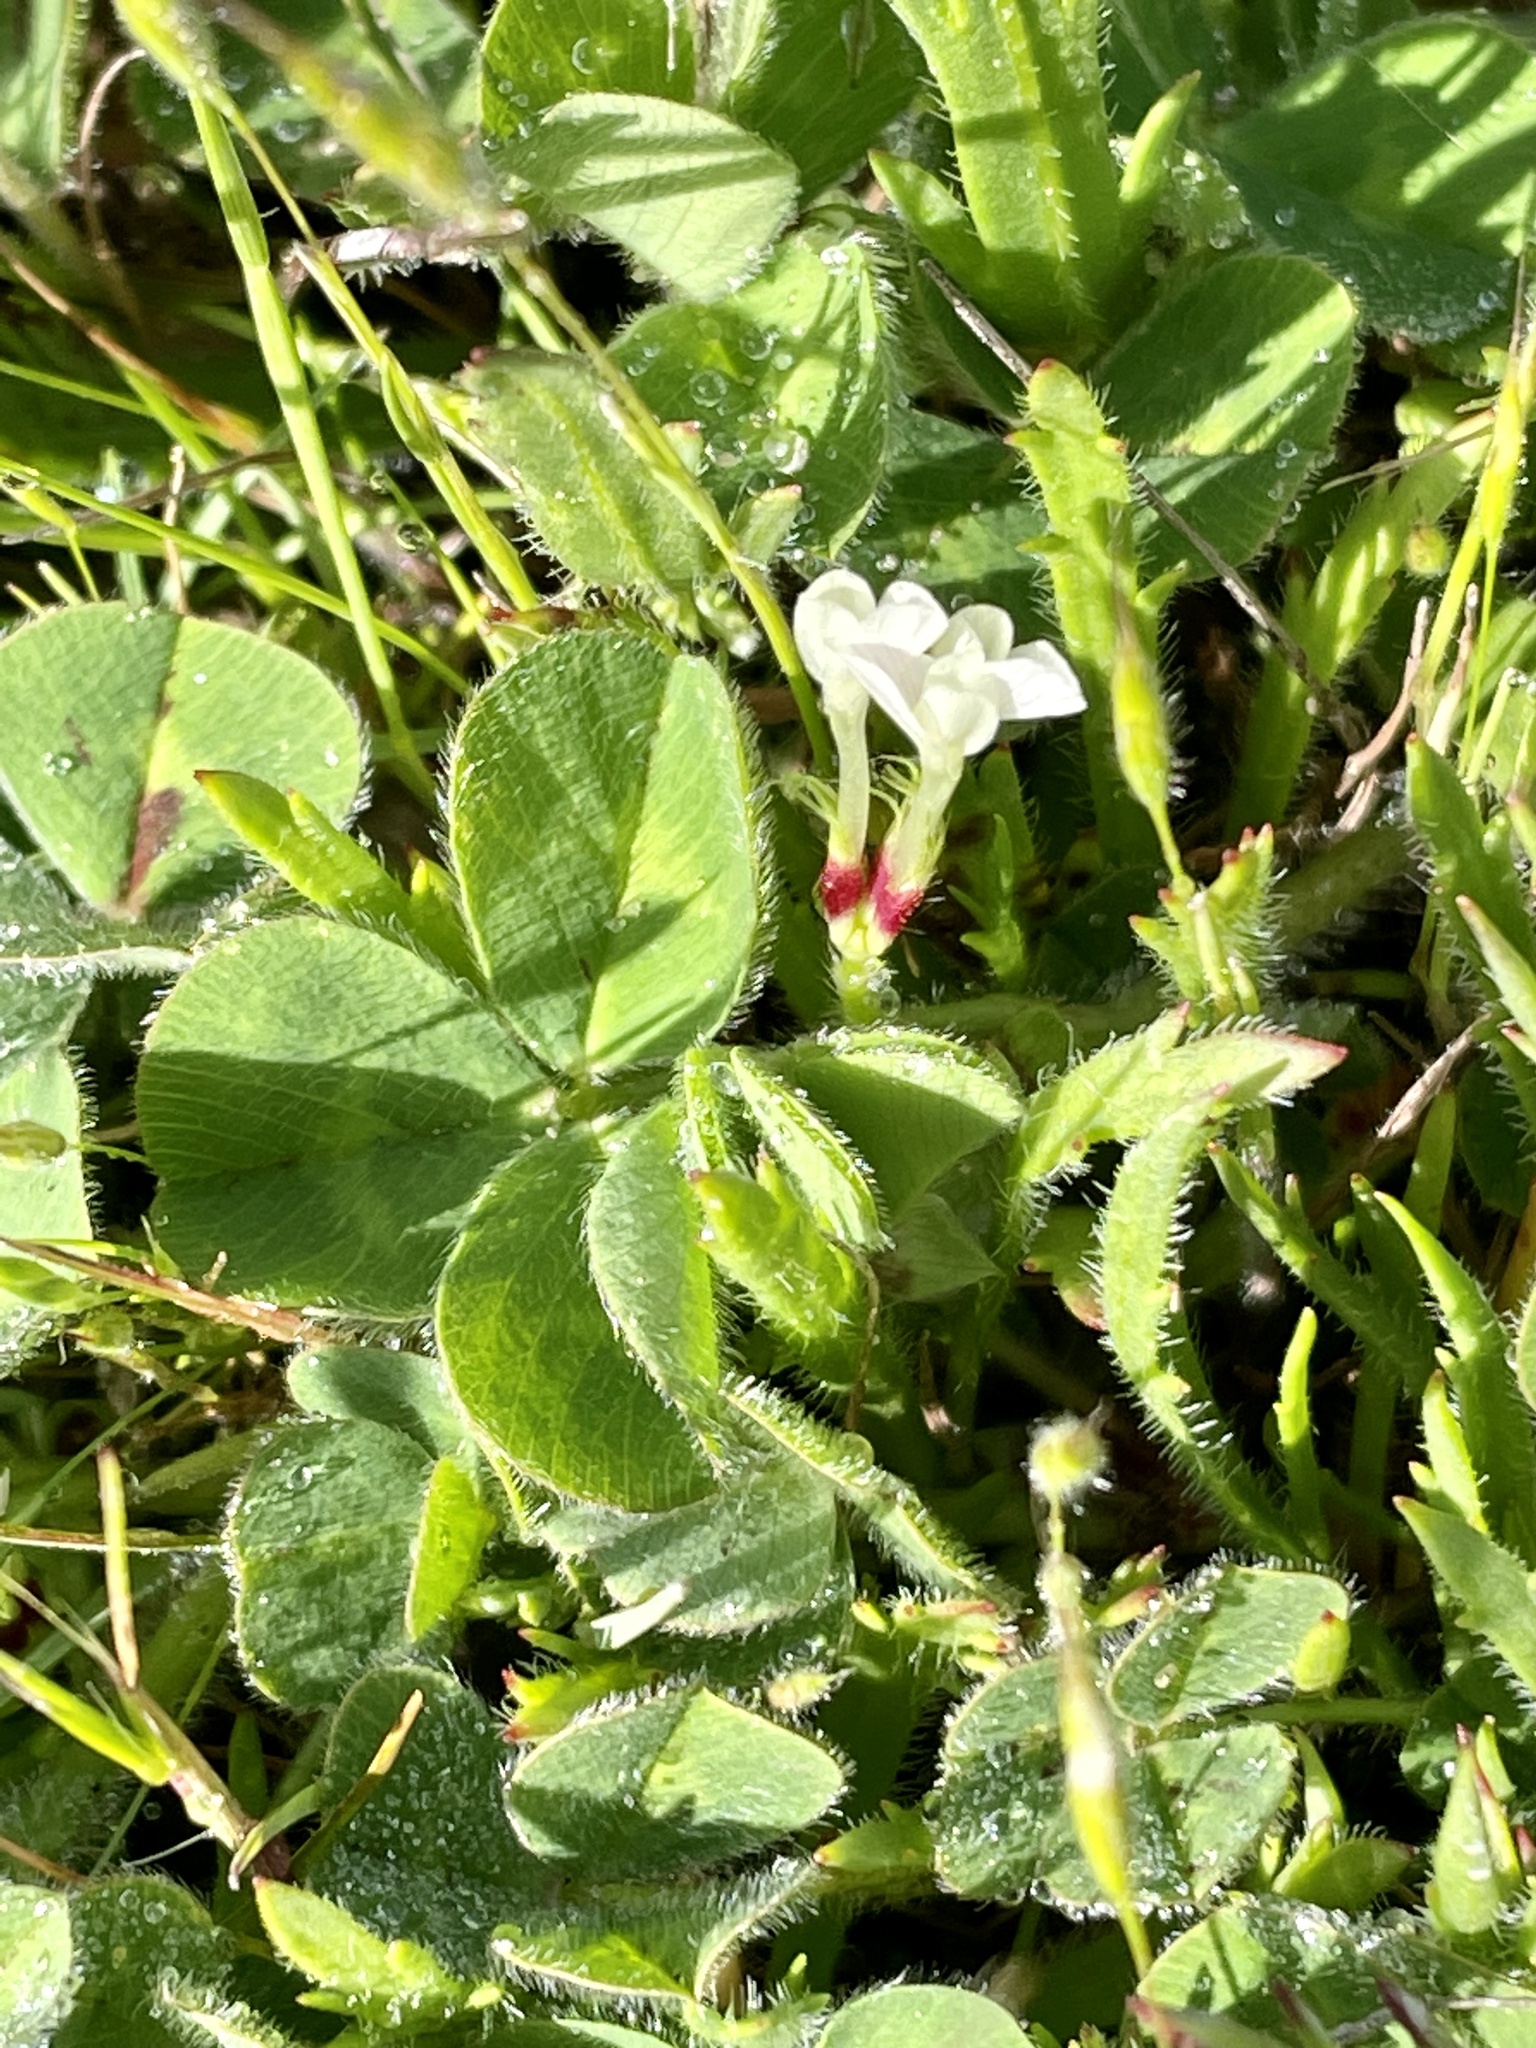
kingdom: Plantae
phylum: Tracheophyta
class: Magnoliopsida
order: Fabales
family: Fabaceae
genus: Trifolium
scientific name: Trifolium subterraneum
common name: Subterranean clover
